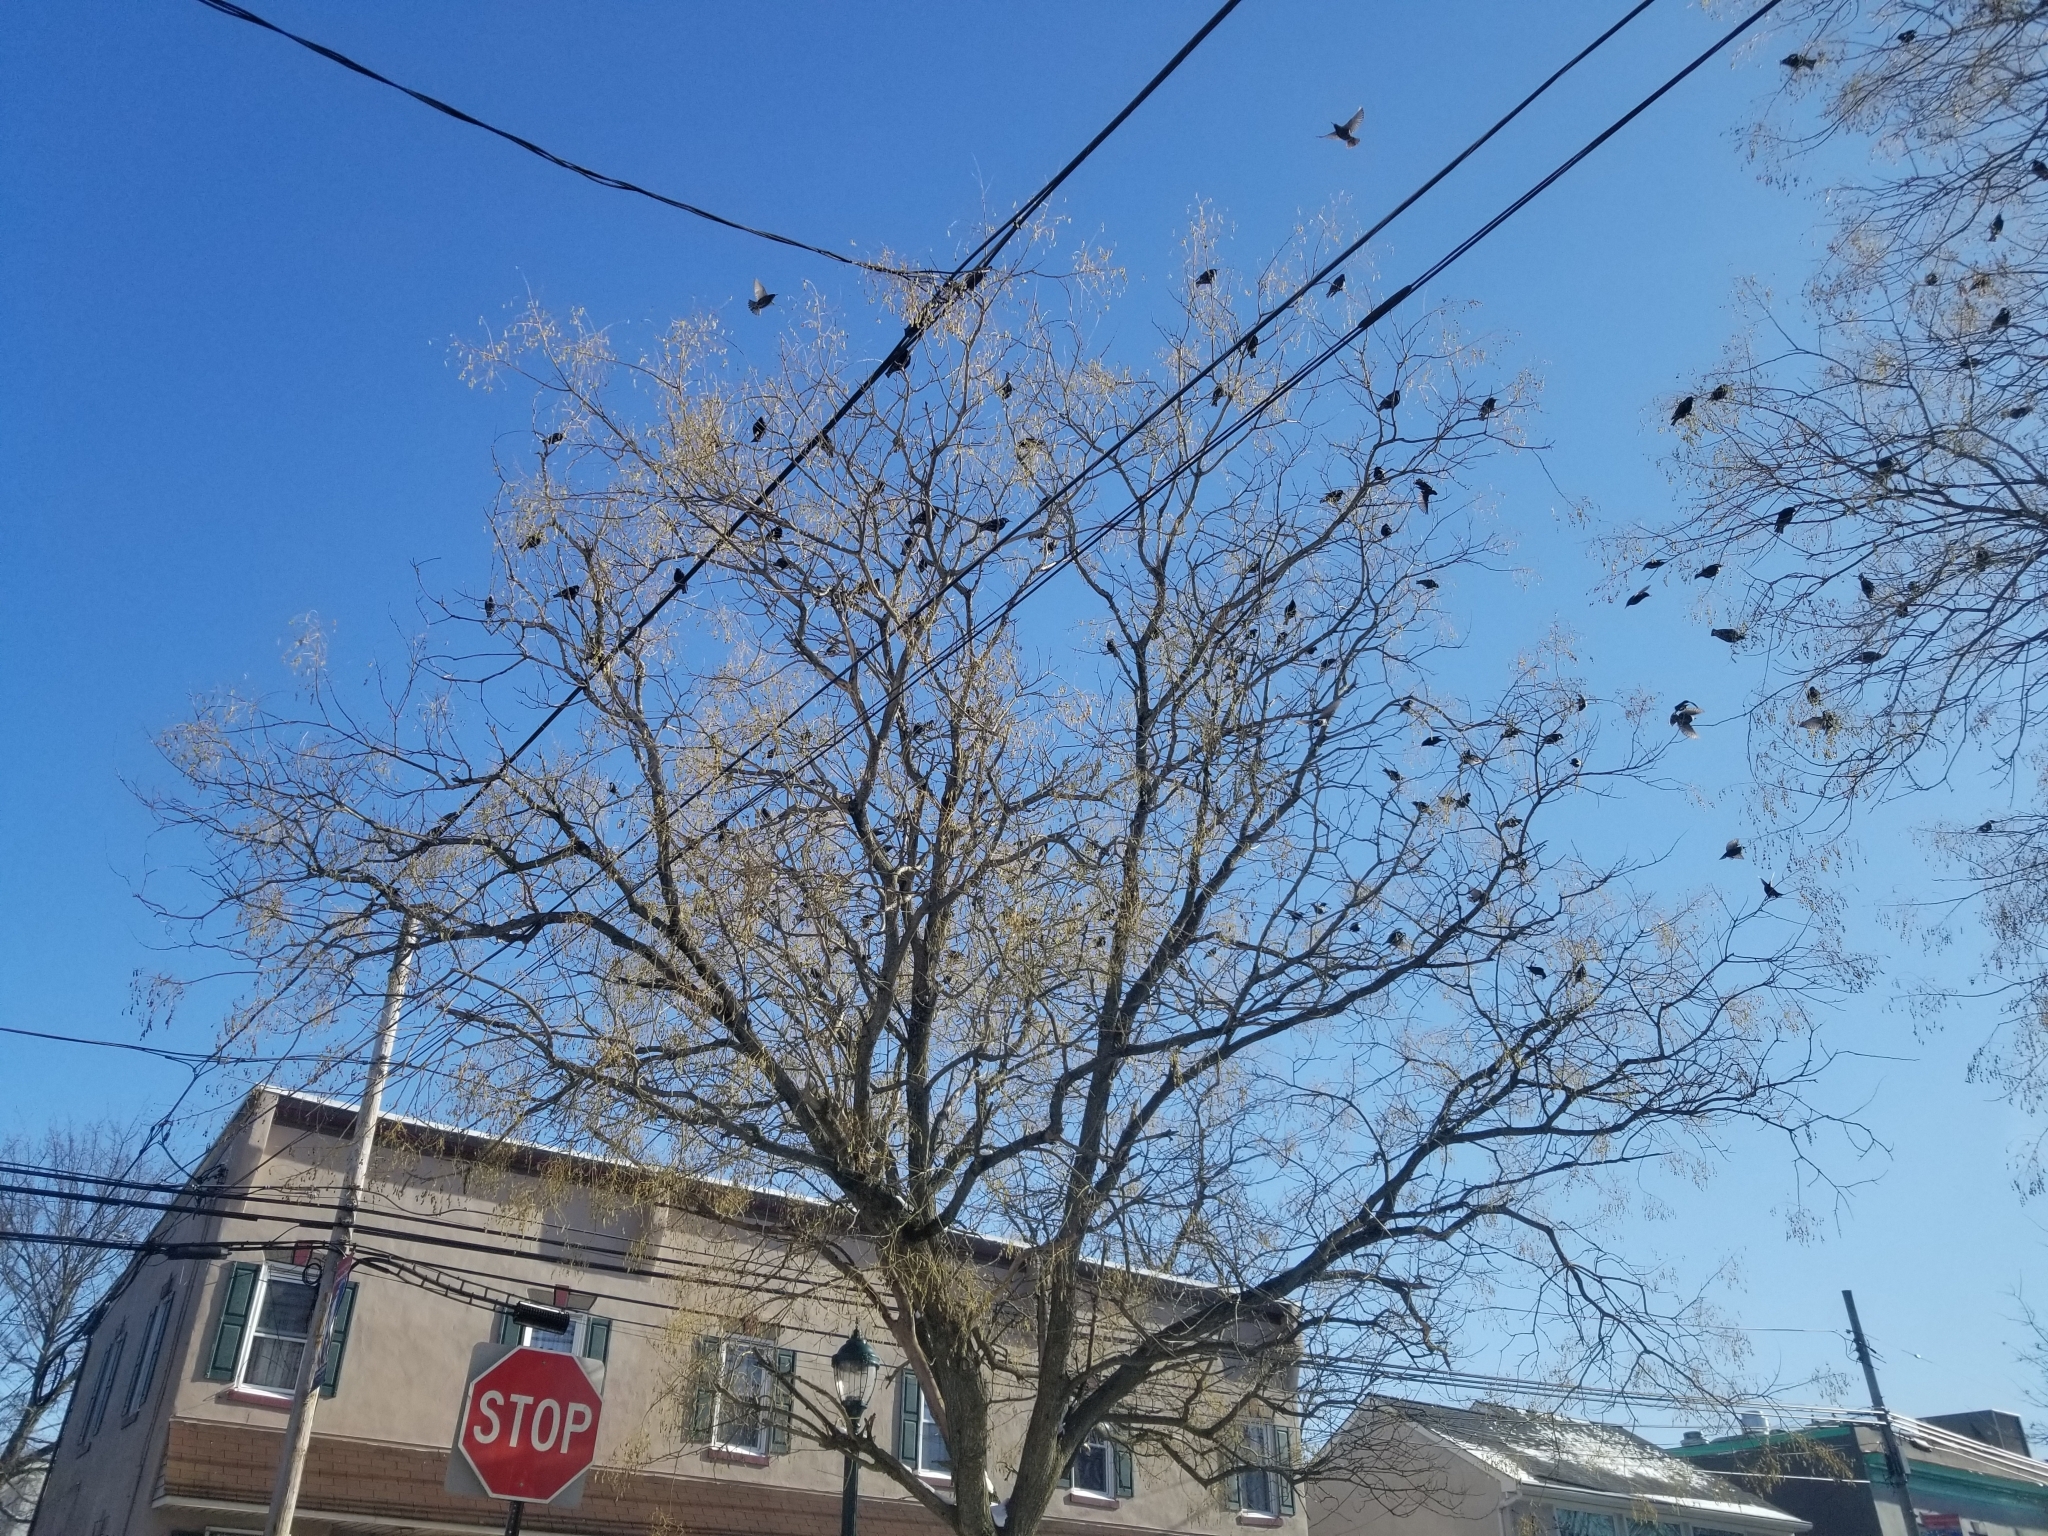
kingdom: Animalia
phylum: Chordata
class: Aves
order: Passeriformes
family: Sturnidae
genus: Sturnus
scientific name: Sturnus vulgaris
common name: Common starling
